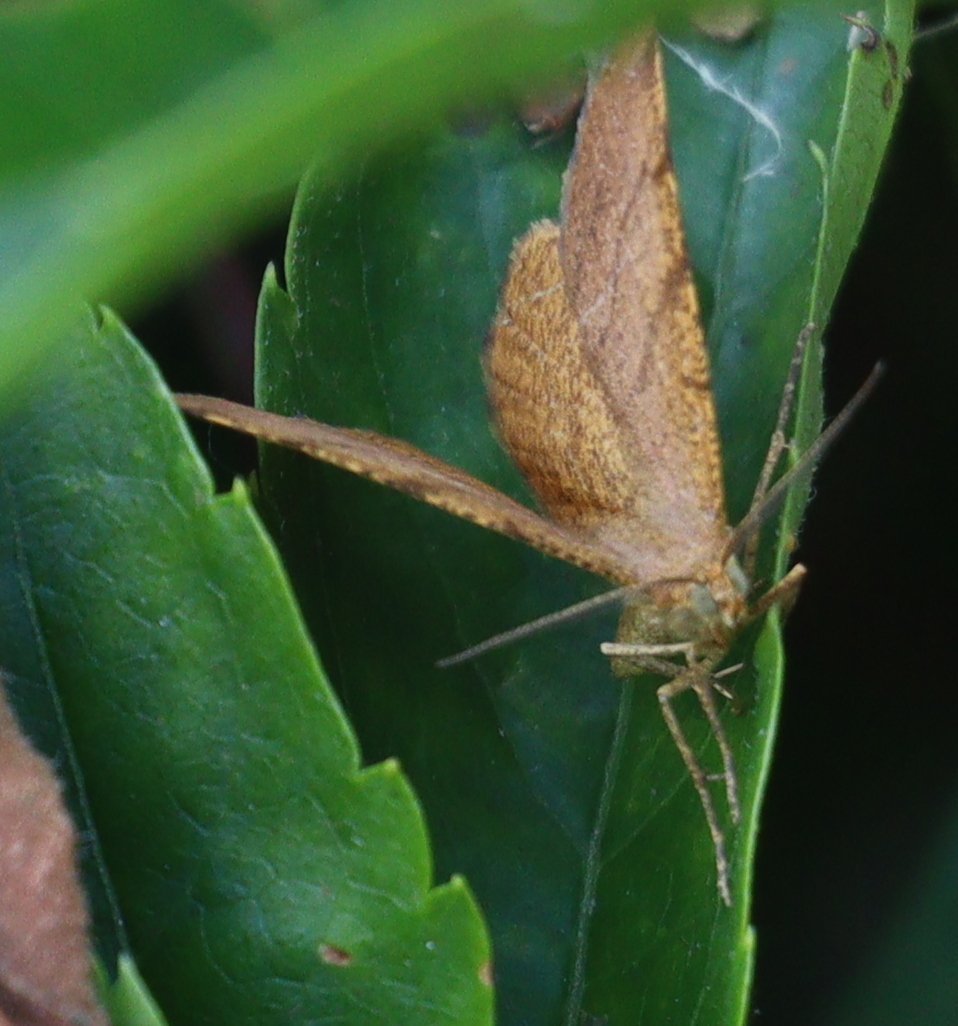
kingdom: Animalia
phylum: Arthropoda
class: Insecta
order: Lepidoptera
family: Geometridae
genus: Macaria
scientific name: Macaria brunneata
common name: Rannoch looper
